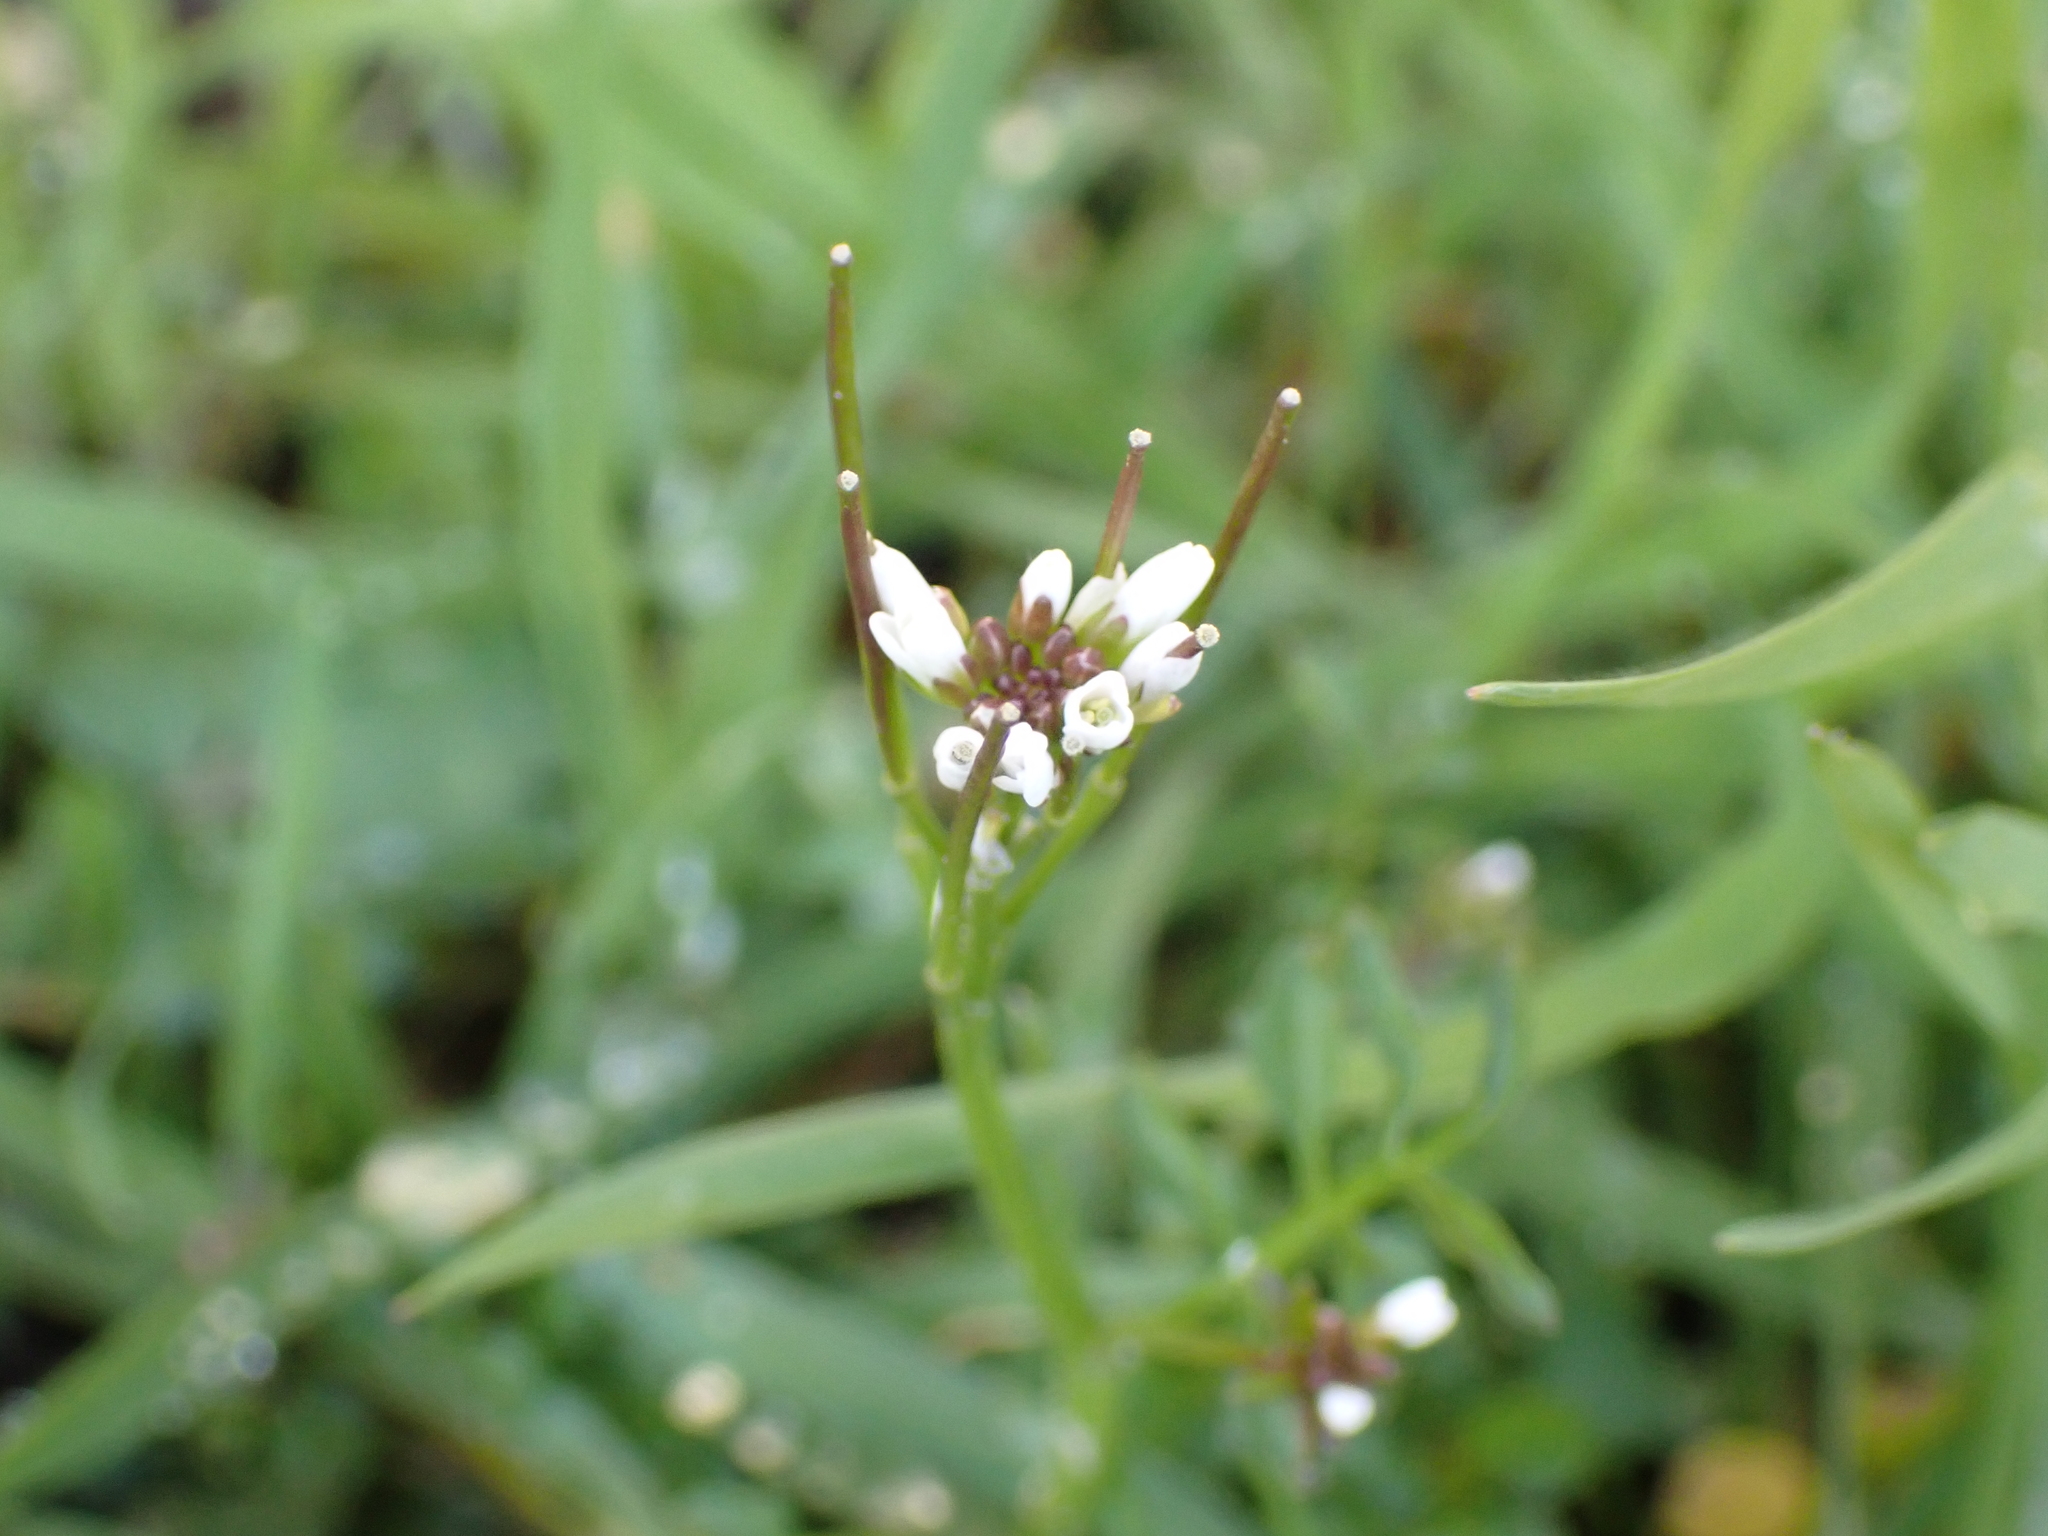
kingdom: Plantae
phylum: Tracheophyta
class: Magnoliopsida
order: Brassicales
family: Brassicaceae
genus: Cardamine
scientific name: Cardamine hirsuta
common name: Hairy bittercress
